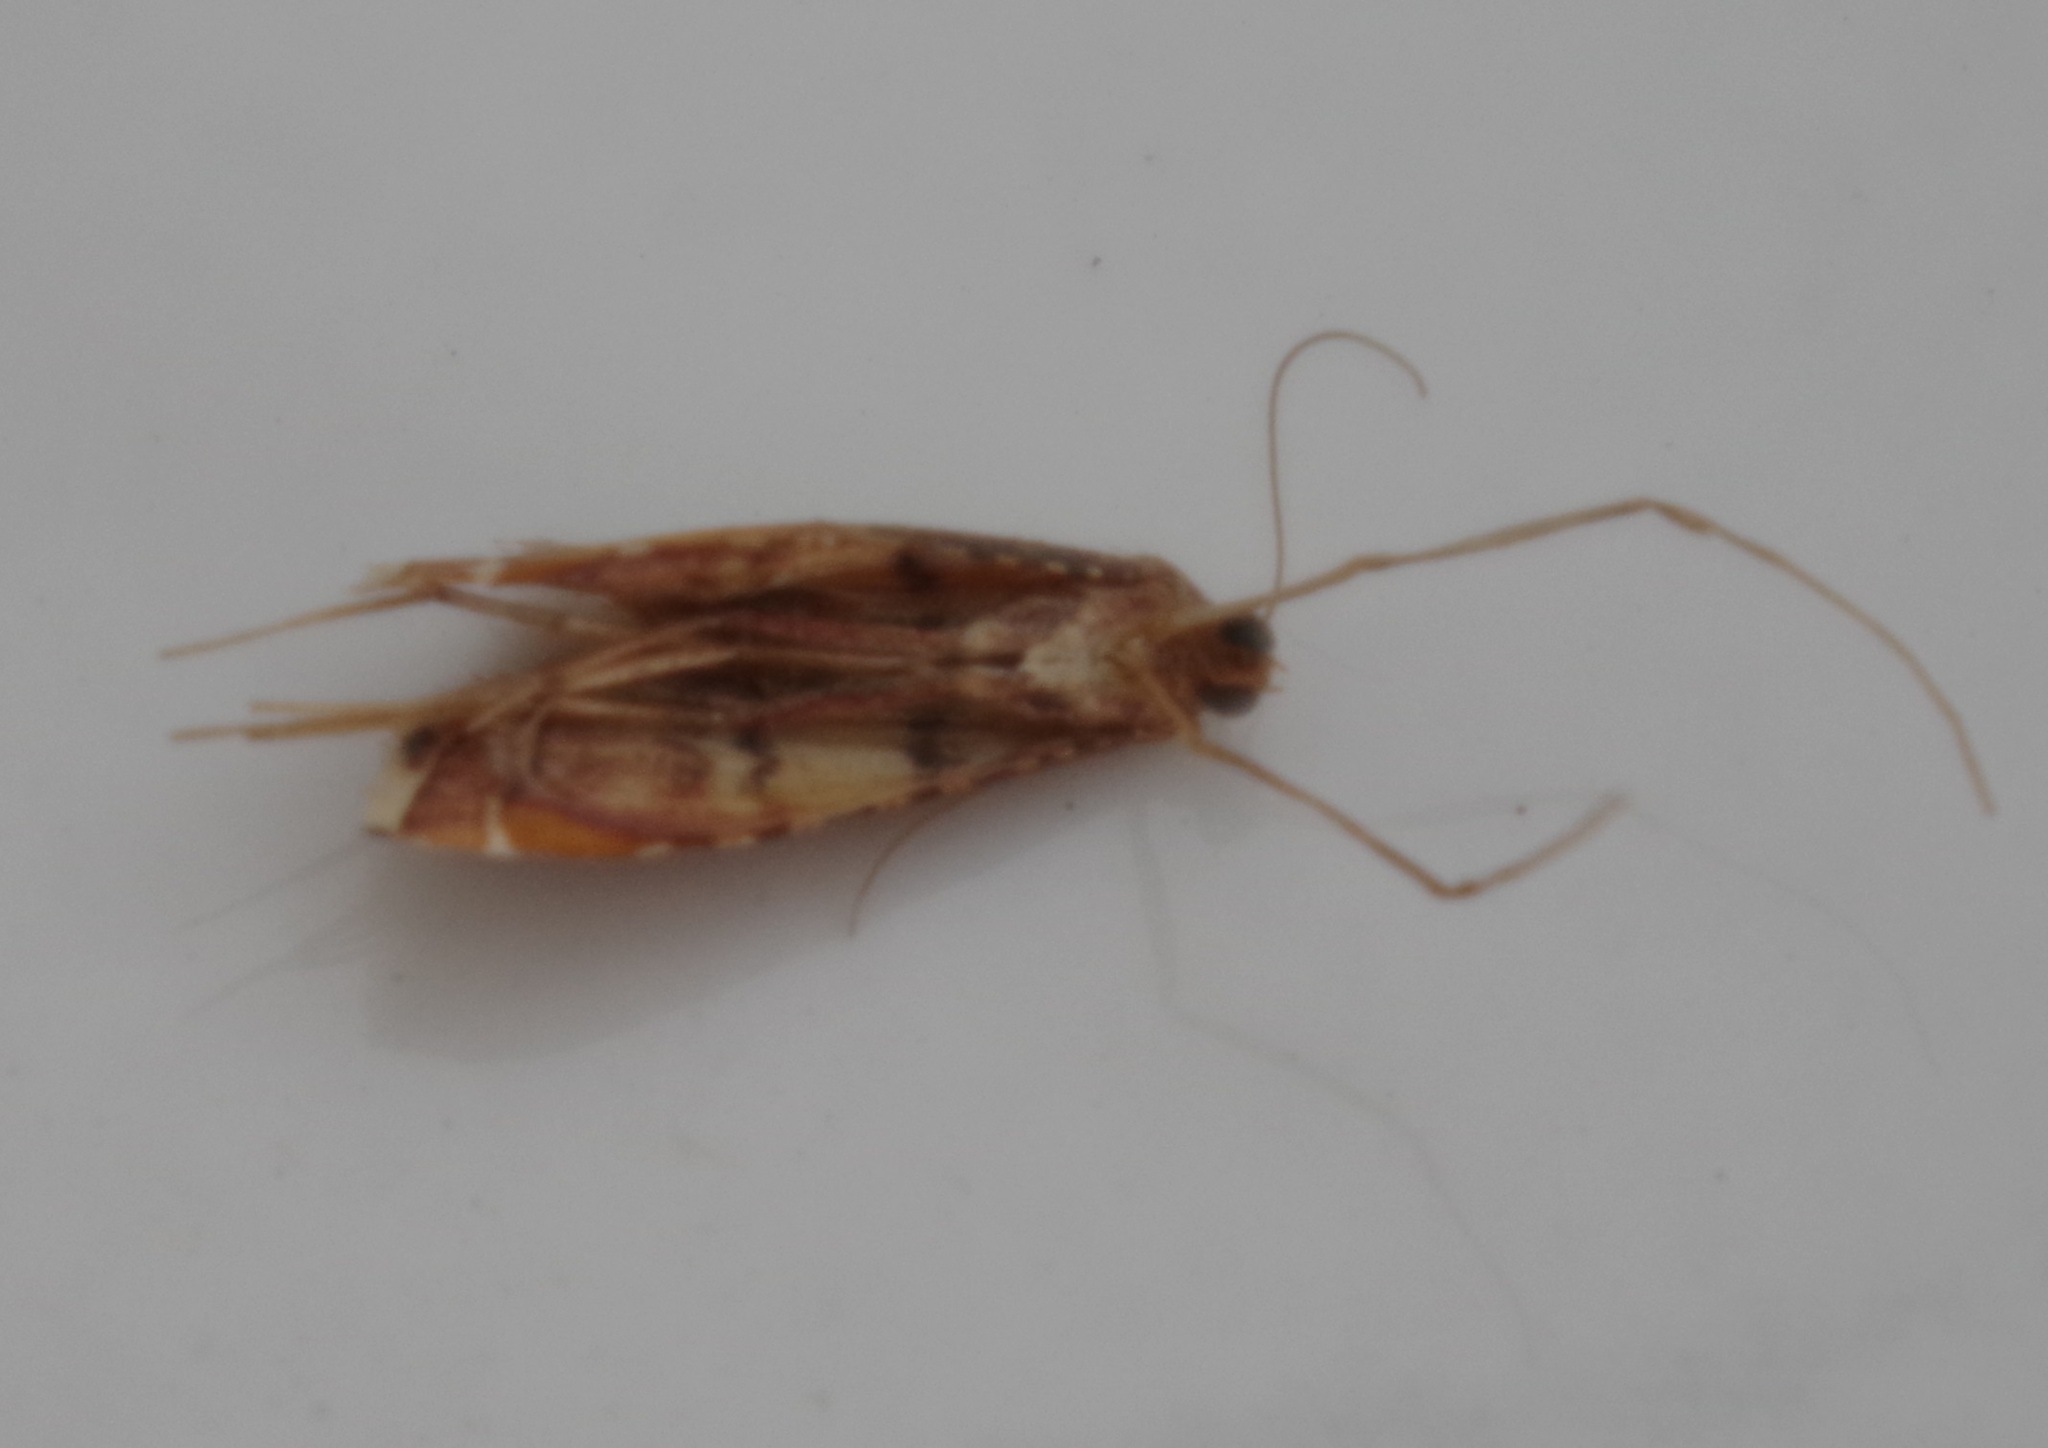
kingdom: Animalia
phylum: Arthropoda
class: Insecta
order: Lepidoptera
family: Pyralidae
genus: Endotricha
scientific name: Endotricha flammealis
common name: Rosy tabby
